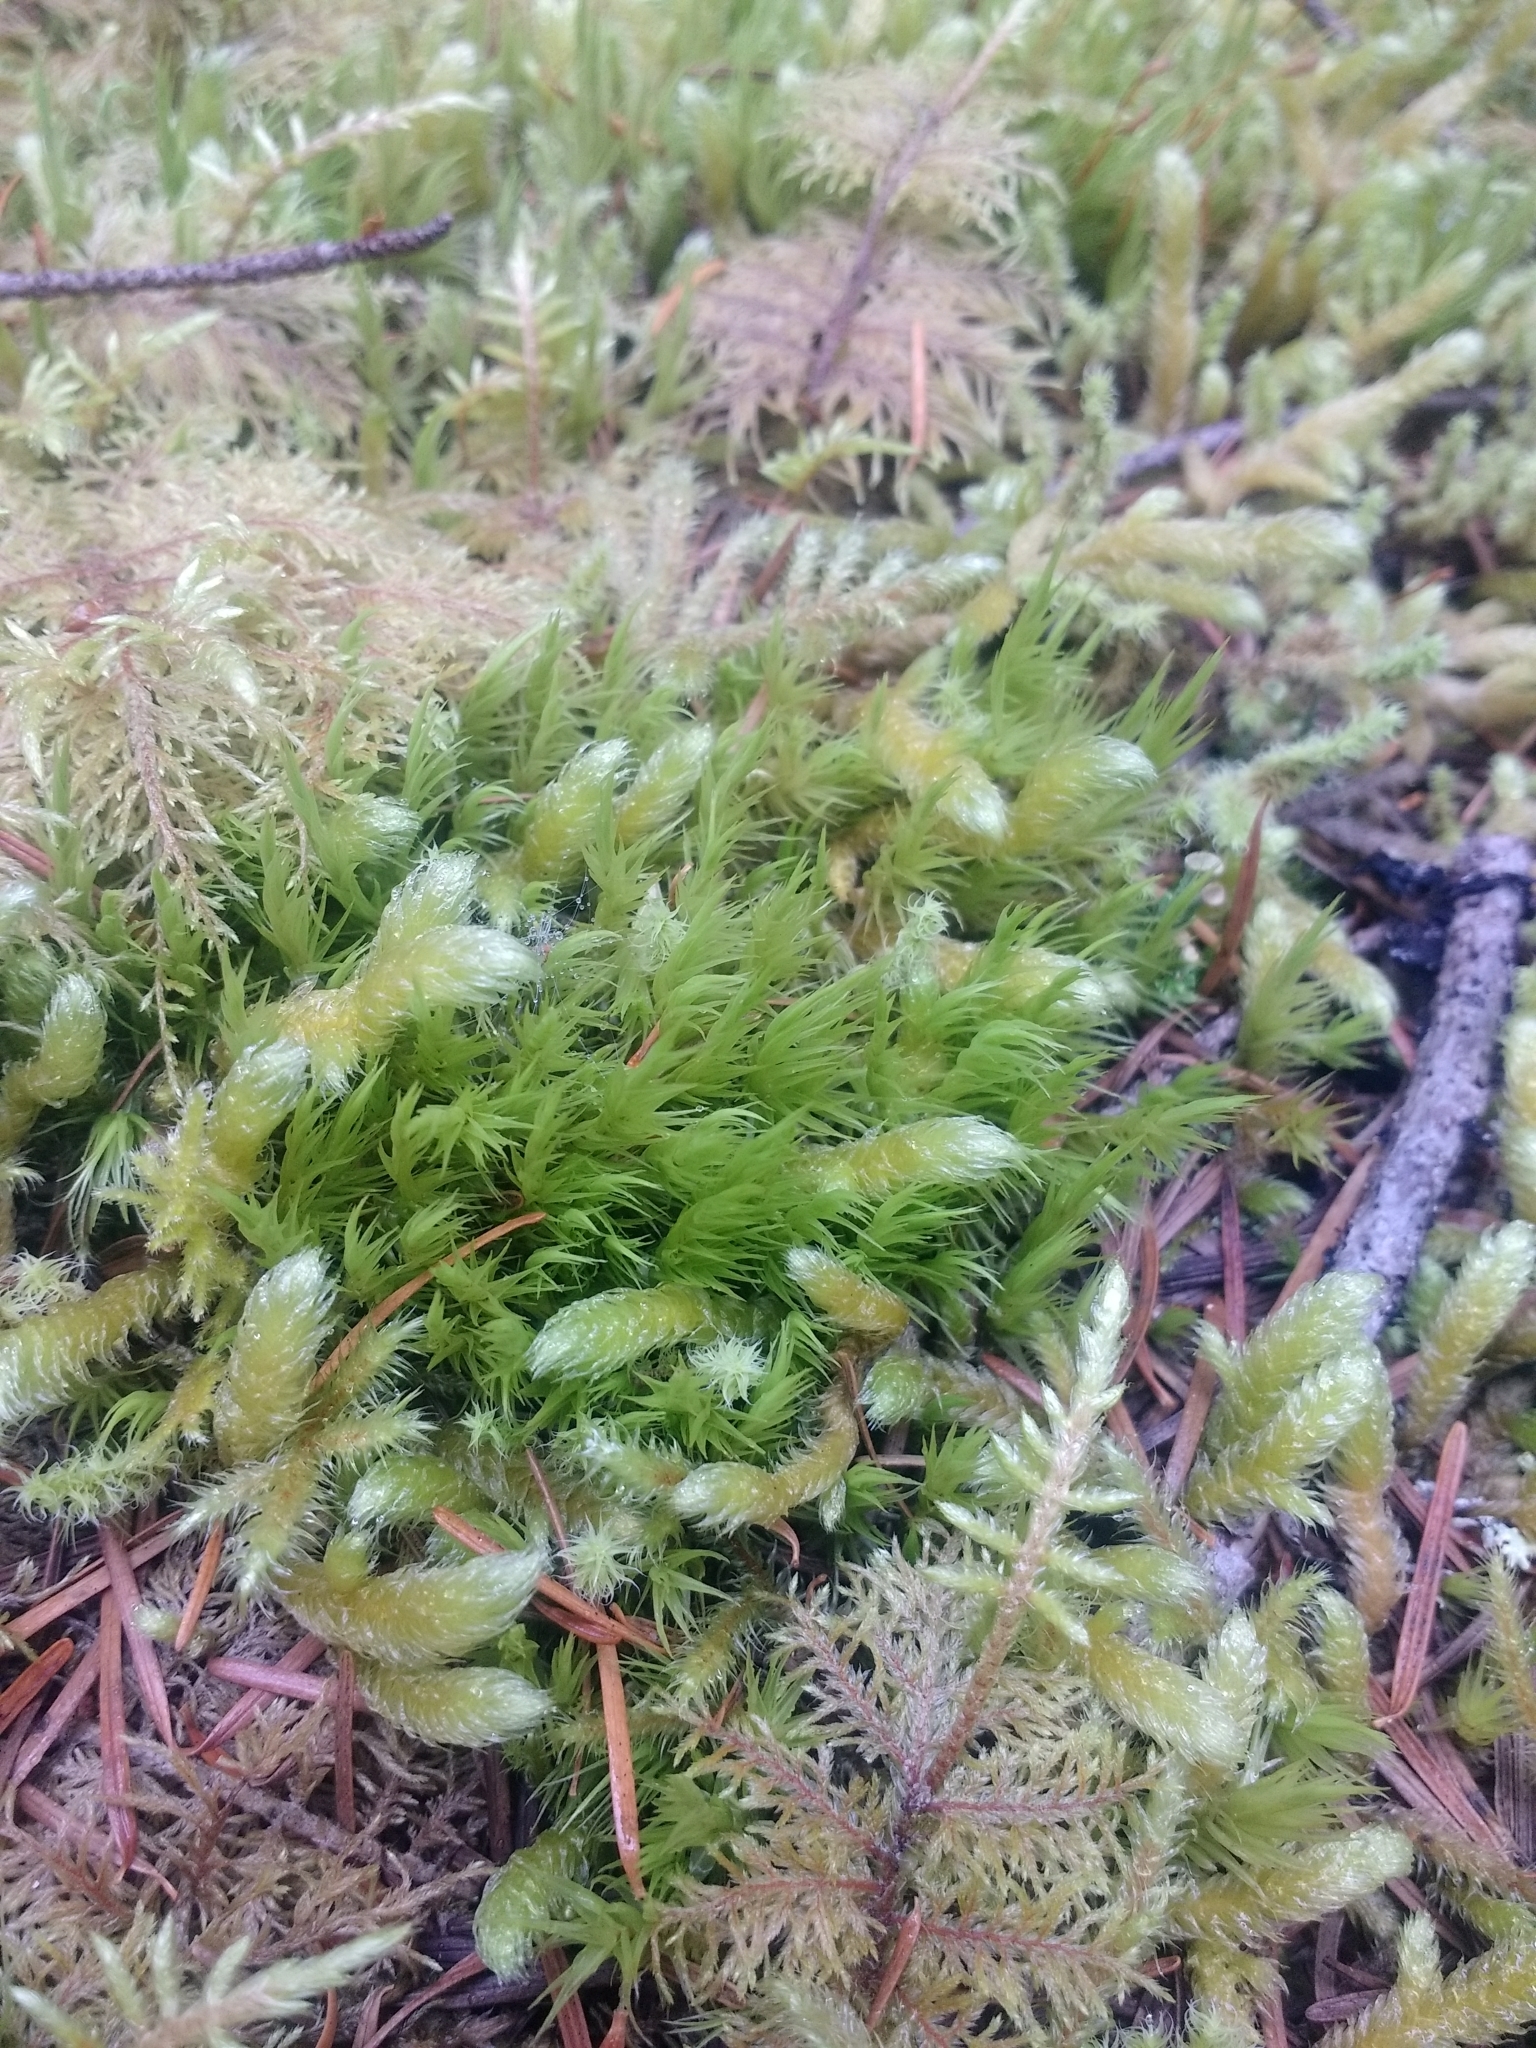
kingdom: Plantae
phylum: Bryophyta
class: Bryopsida
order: Dicranales
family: Dicranaceae
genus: Dicranum
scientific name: Dicranum scoparium
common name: Broom fork-moss
